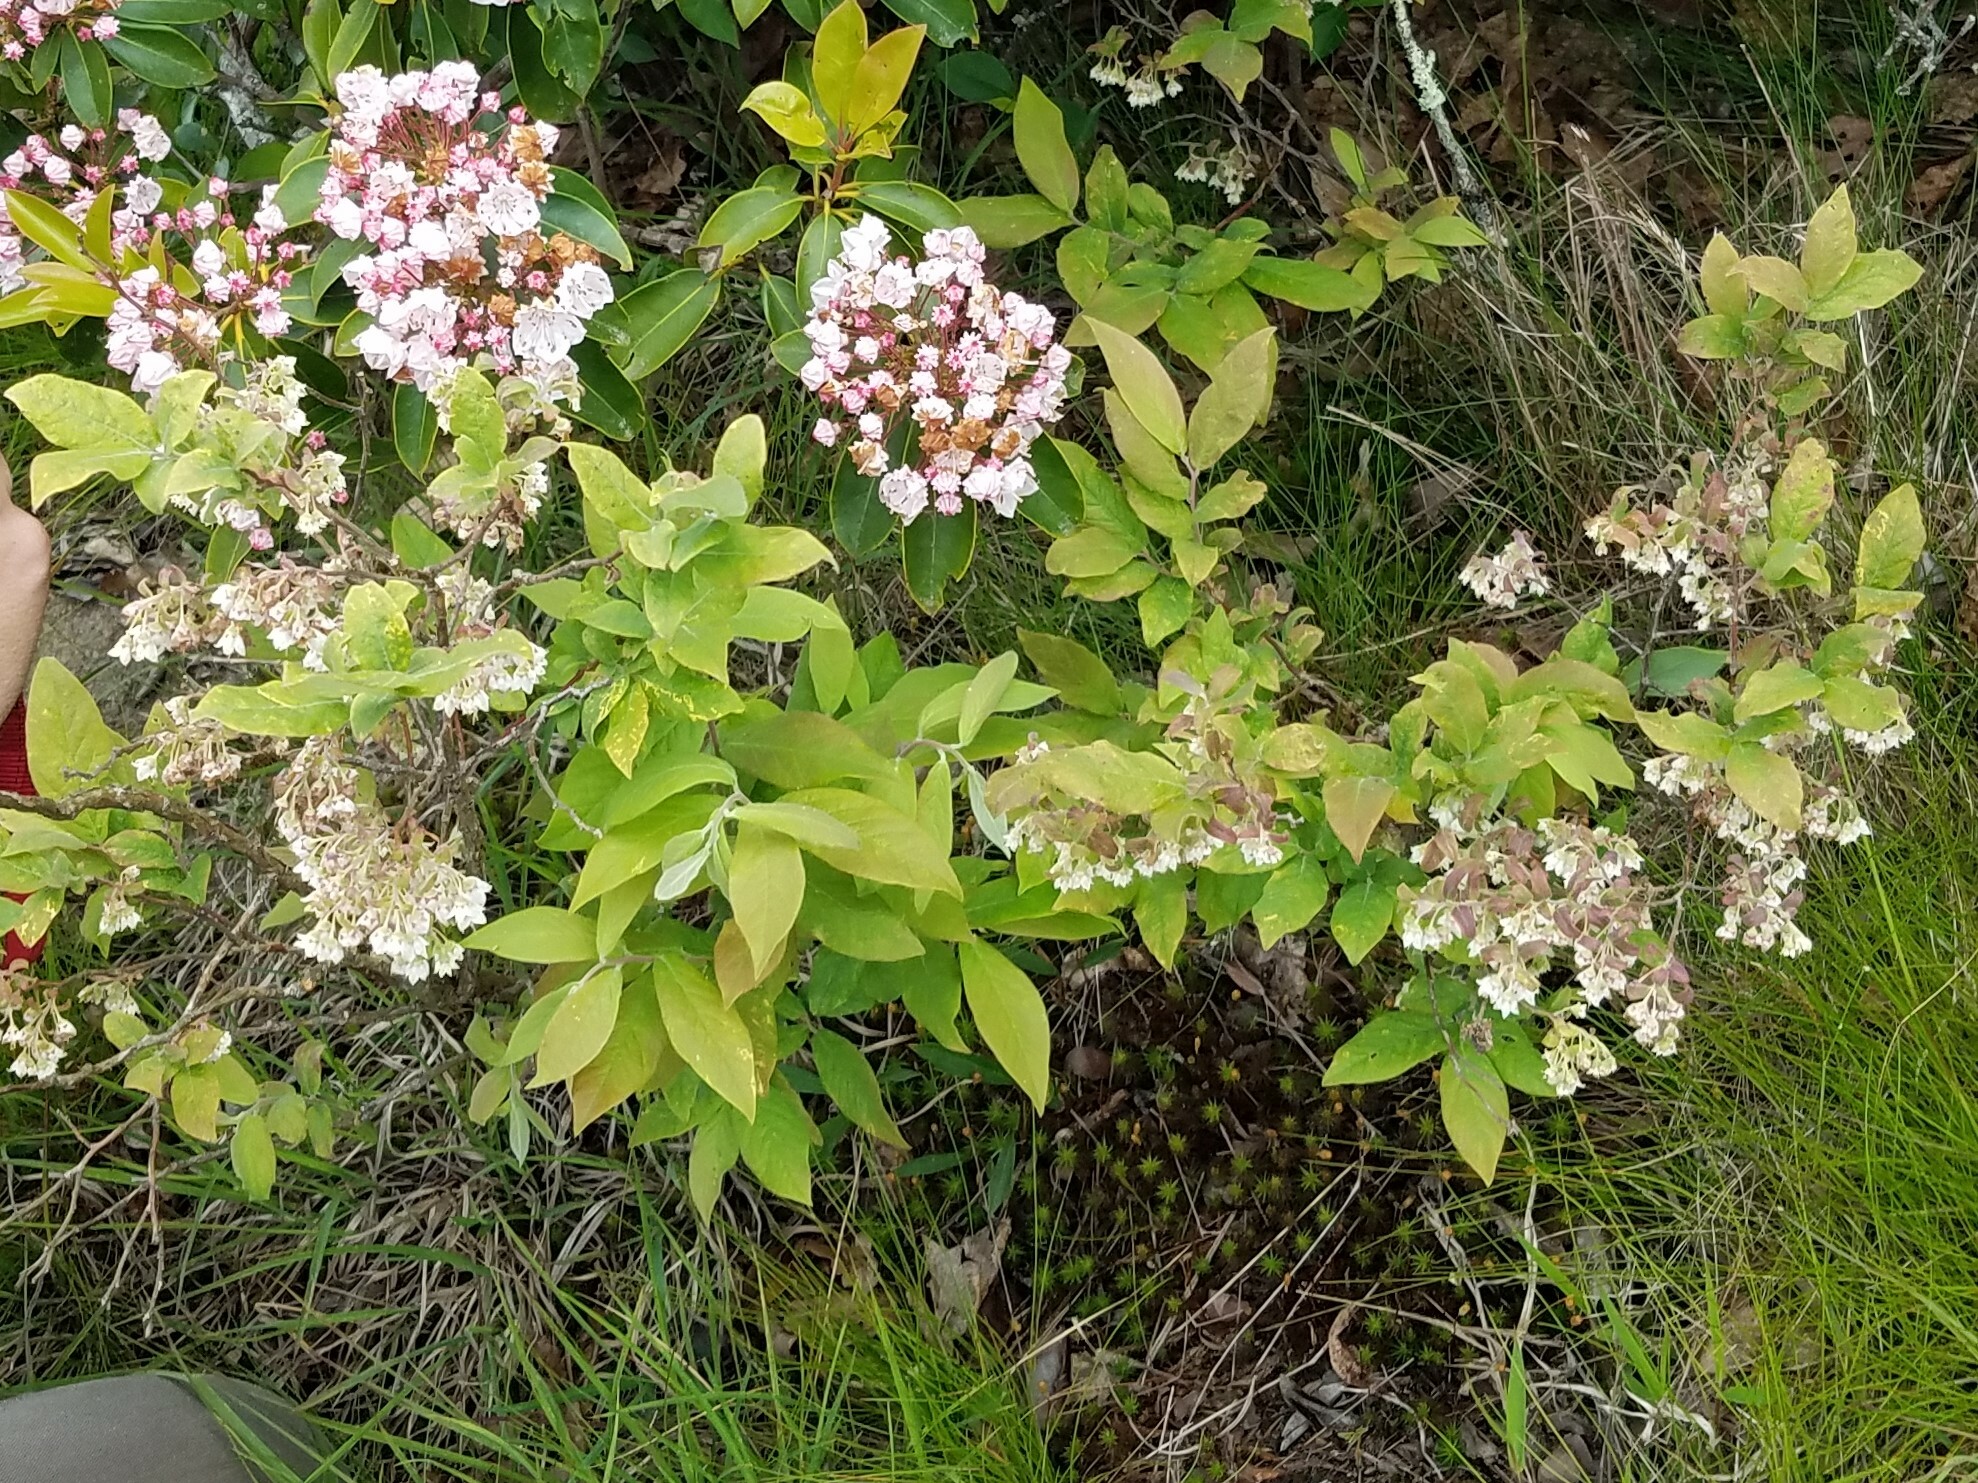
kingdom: Plantae
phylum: Tracheophyta
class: Magnoliopsida
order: Ericales
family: Ericaceae
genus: Vaccinium
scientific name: Vaccinium stamineum
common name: Deerberry
